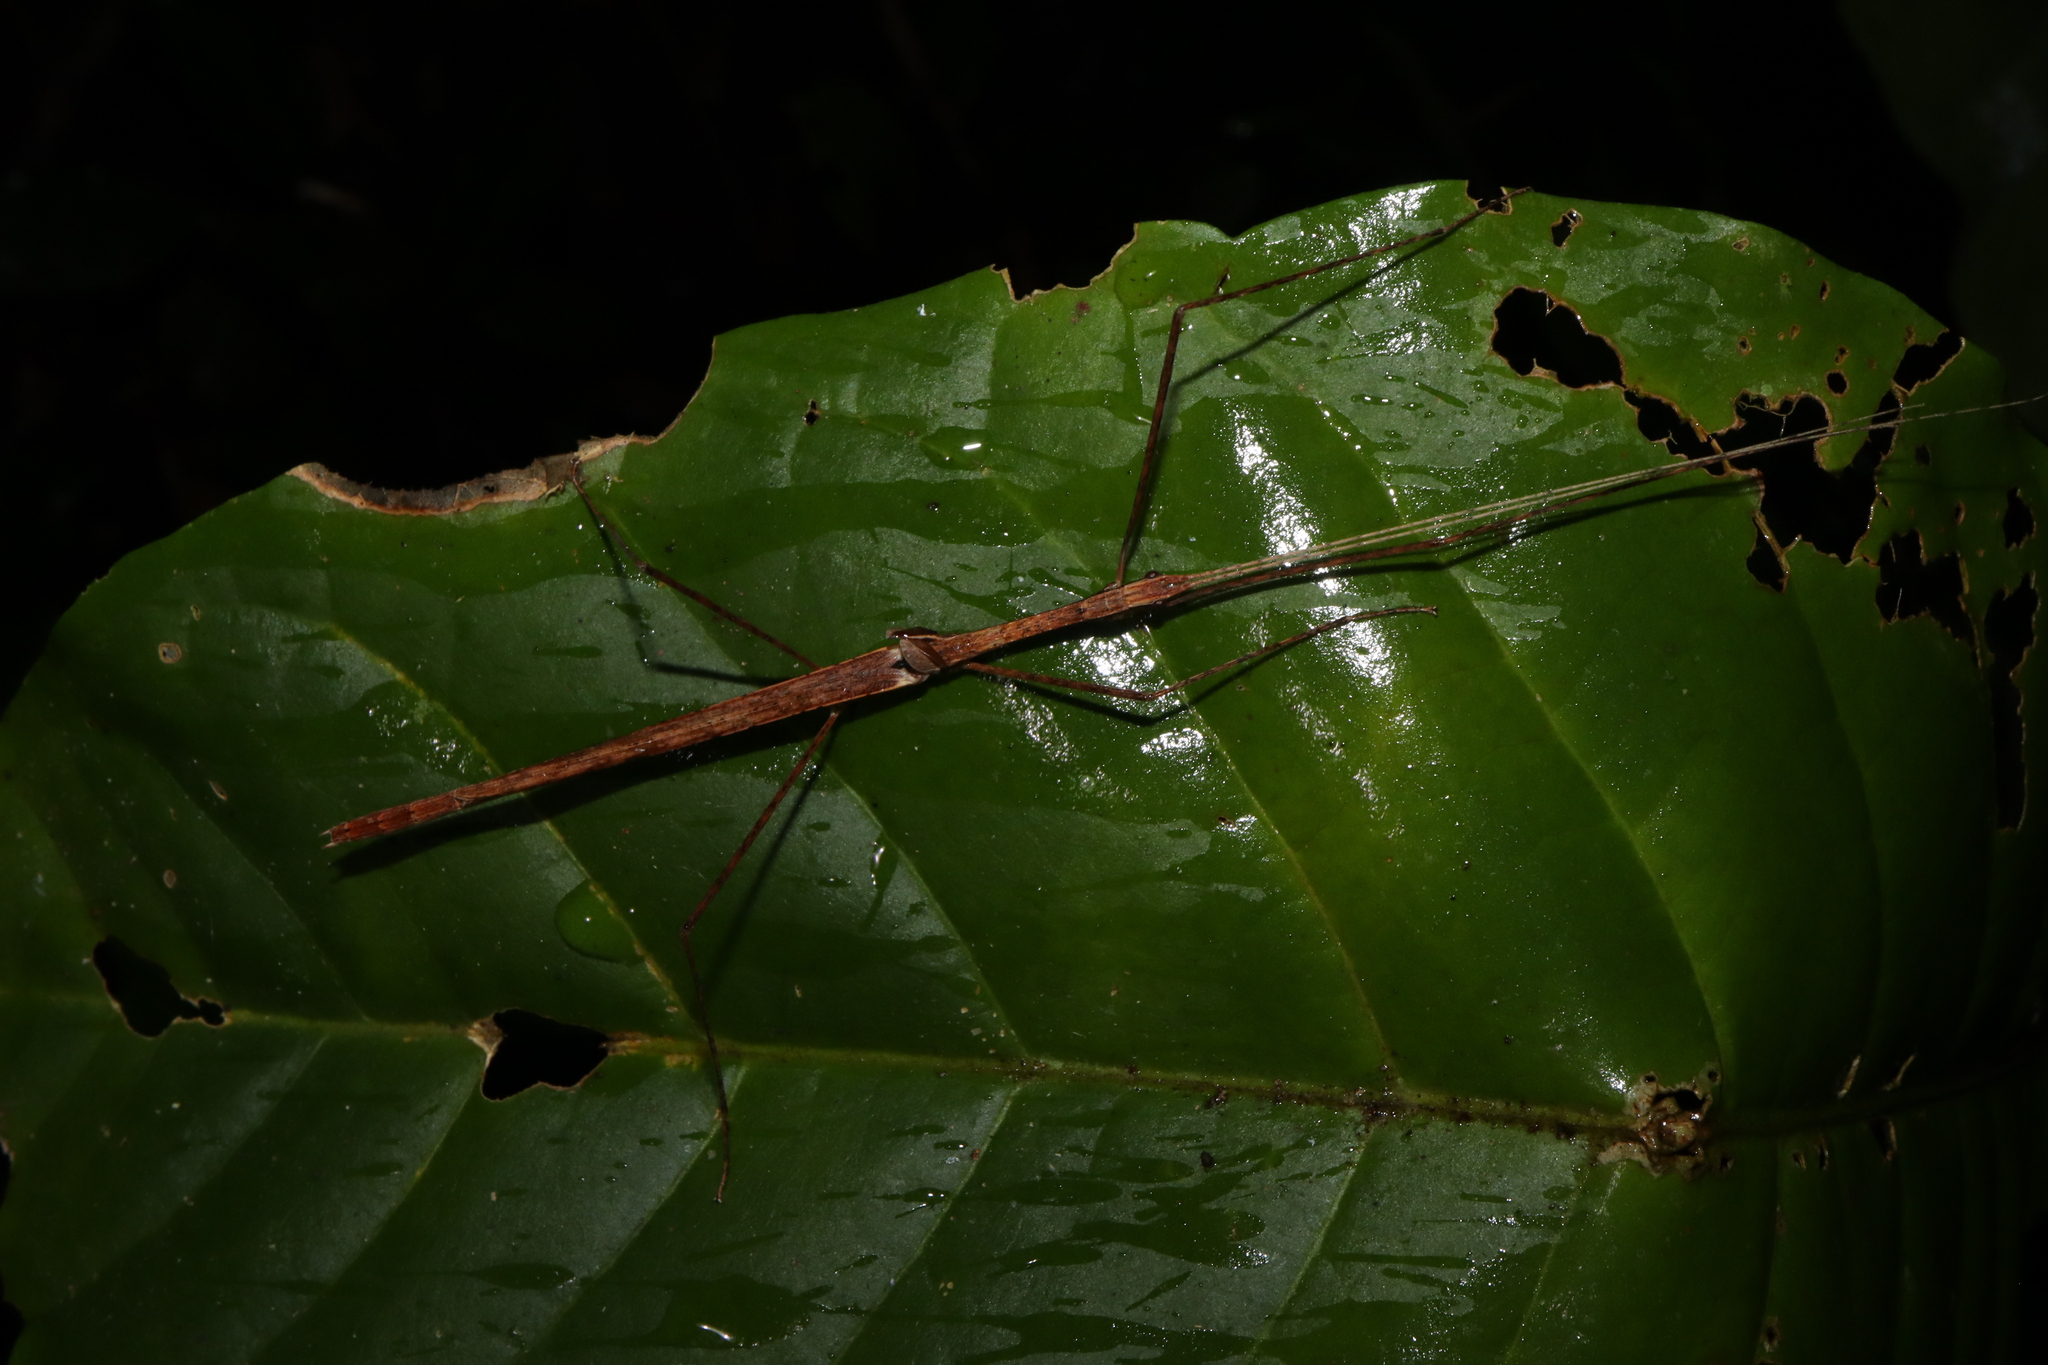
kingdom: Animalia
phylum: Arthropoda
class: Insecta
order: Phasmida
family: Lonchodidae
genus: Sipyloidea
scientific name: Sipyloidea larryi
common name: Hurricane larry stick-insect
